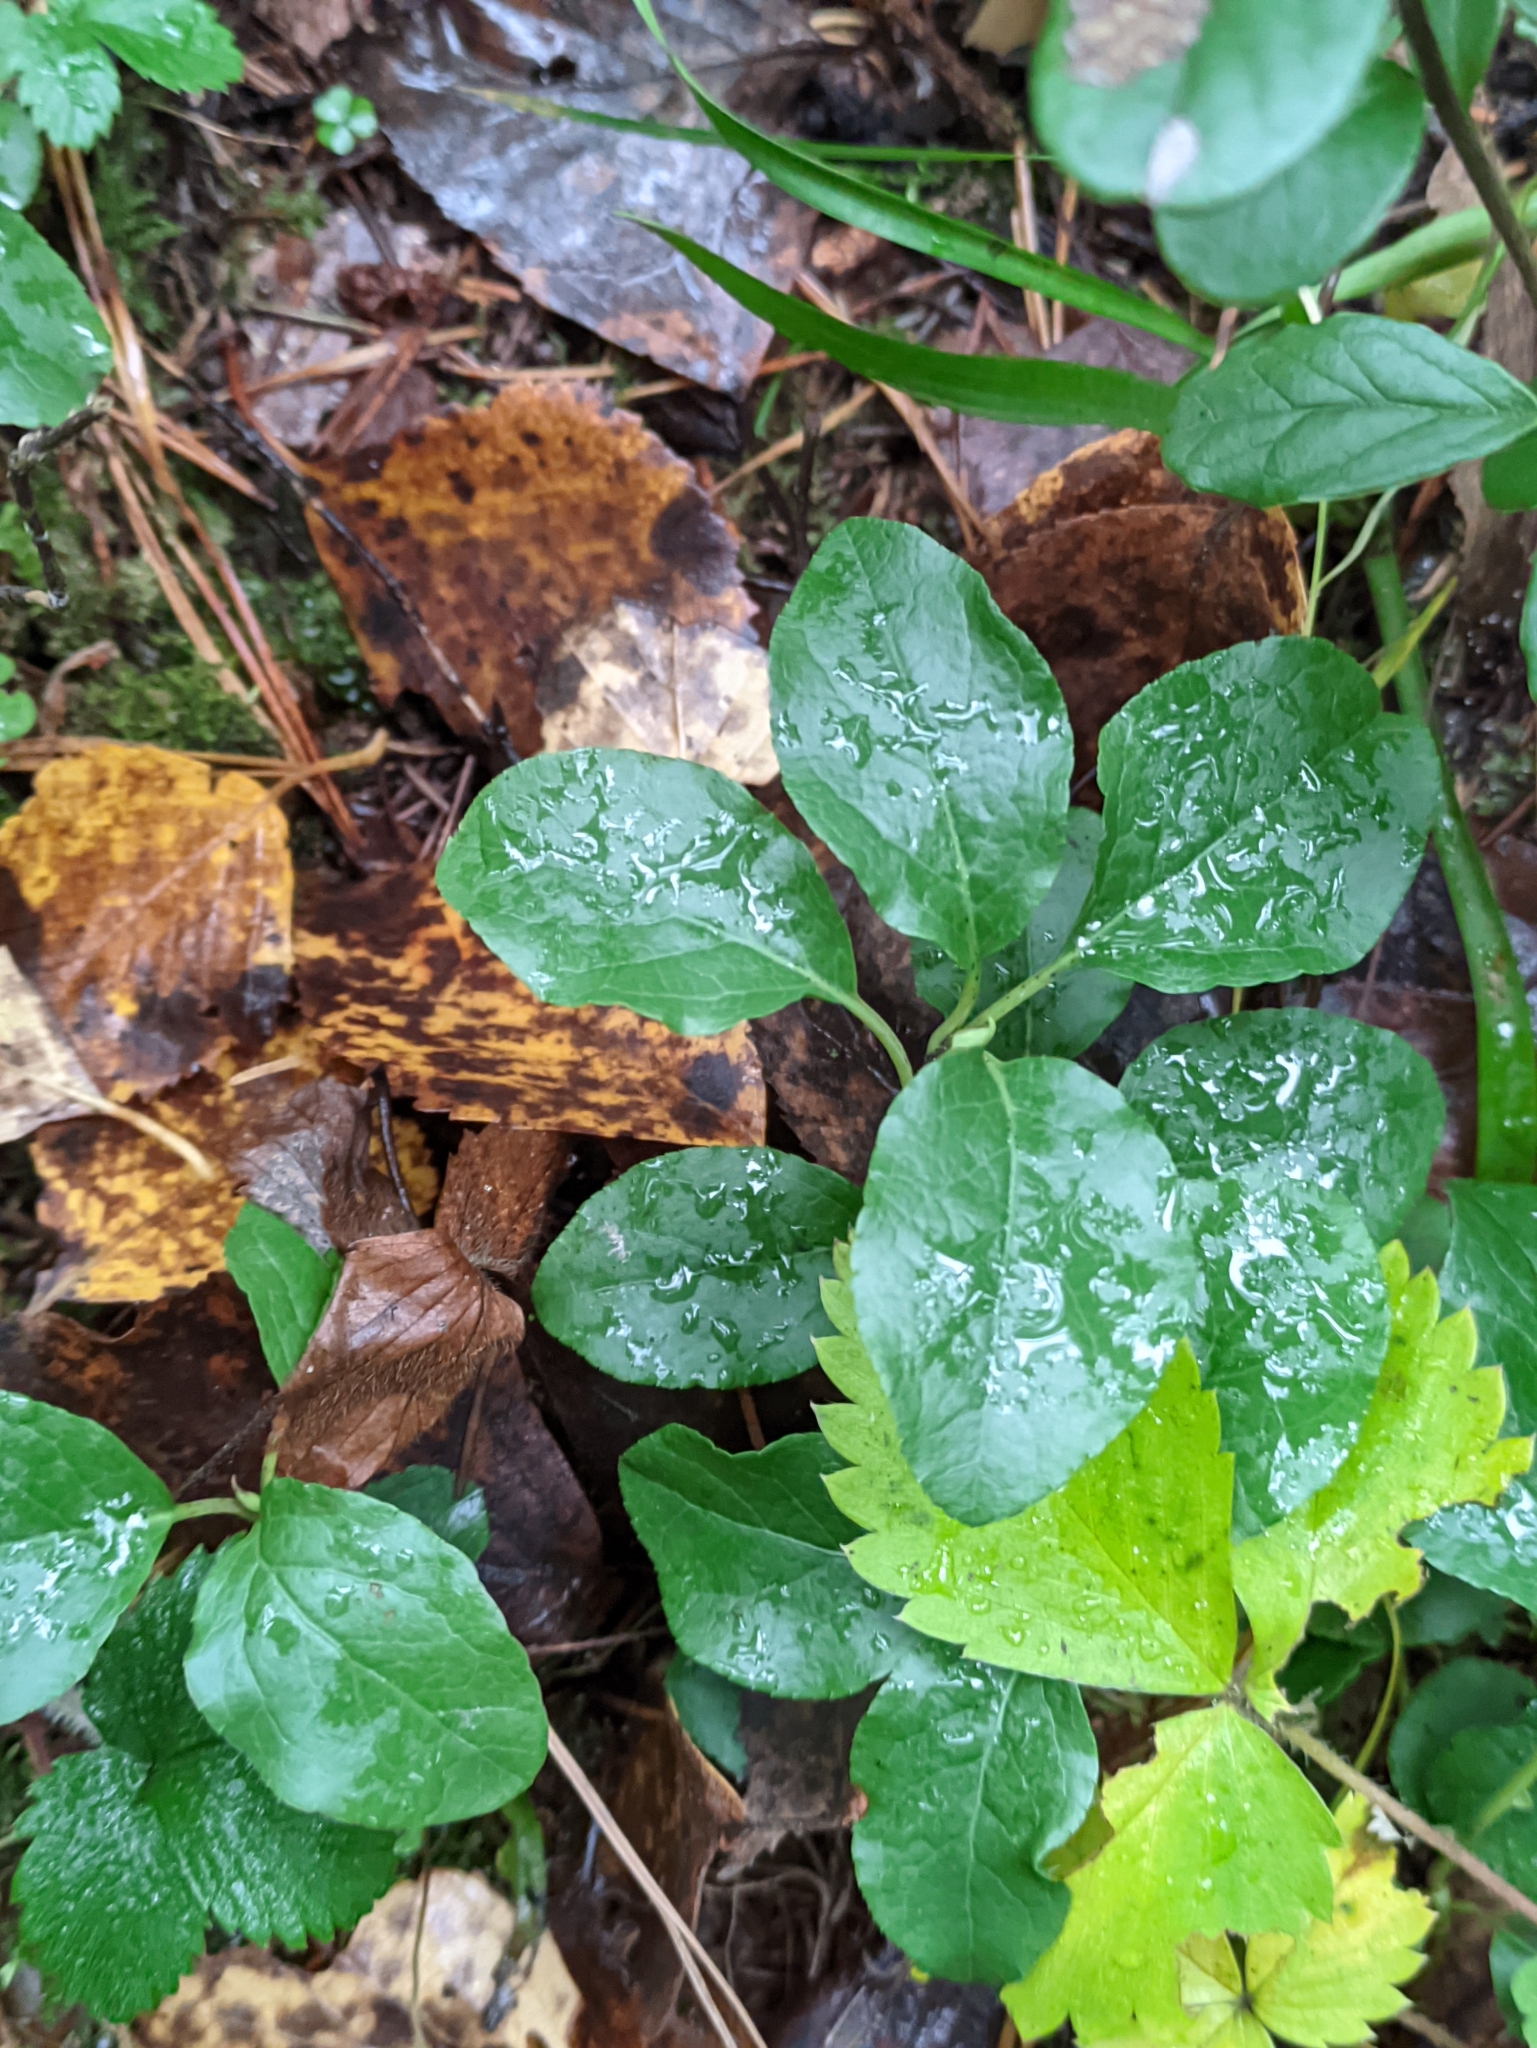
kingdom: Plantae
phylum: Tracheophyta
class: Magnoliopsida
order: Ericales
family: Ericaceae
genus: Orthilia
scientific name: Orthilia secunda
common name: One-sided orthilia
